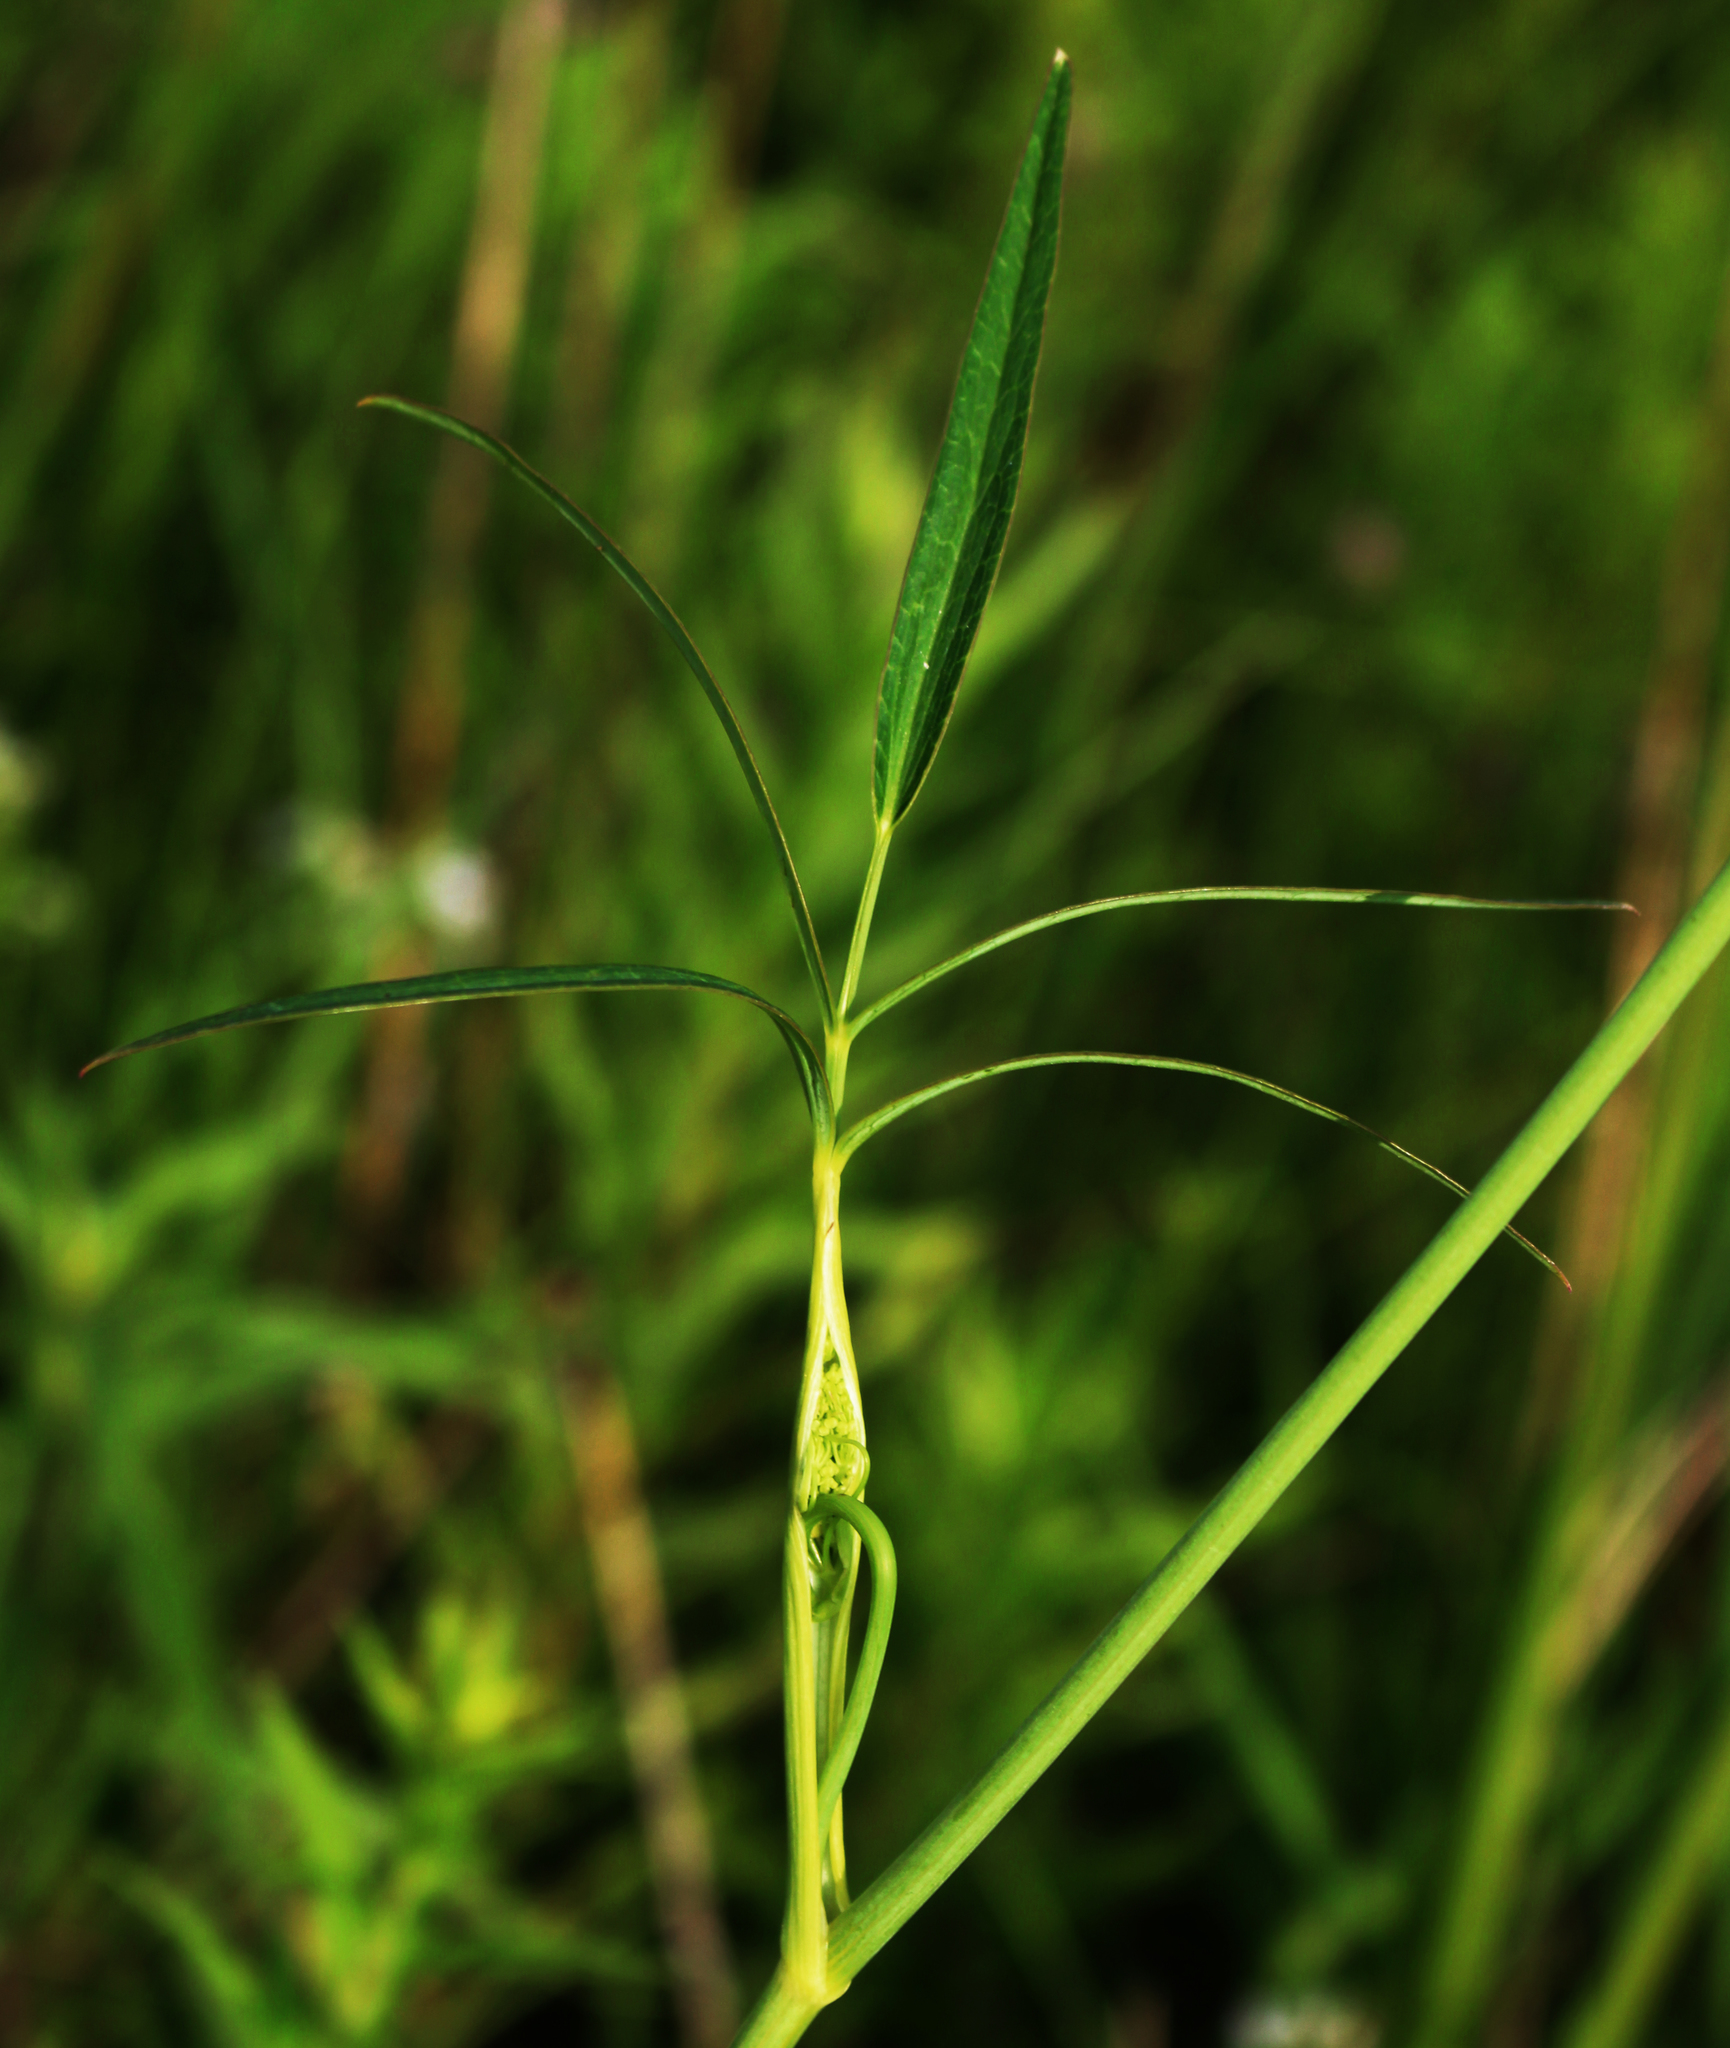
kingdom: Plantae
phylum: Tracheophyta
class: Magnoliopsida
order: Apiales
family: Apiaceae
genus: Oxypolis
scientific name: Oxypolis rigidior
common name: Cowbane
